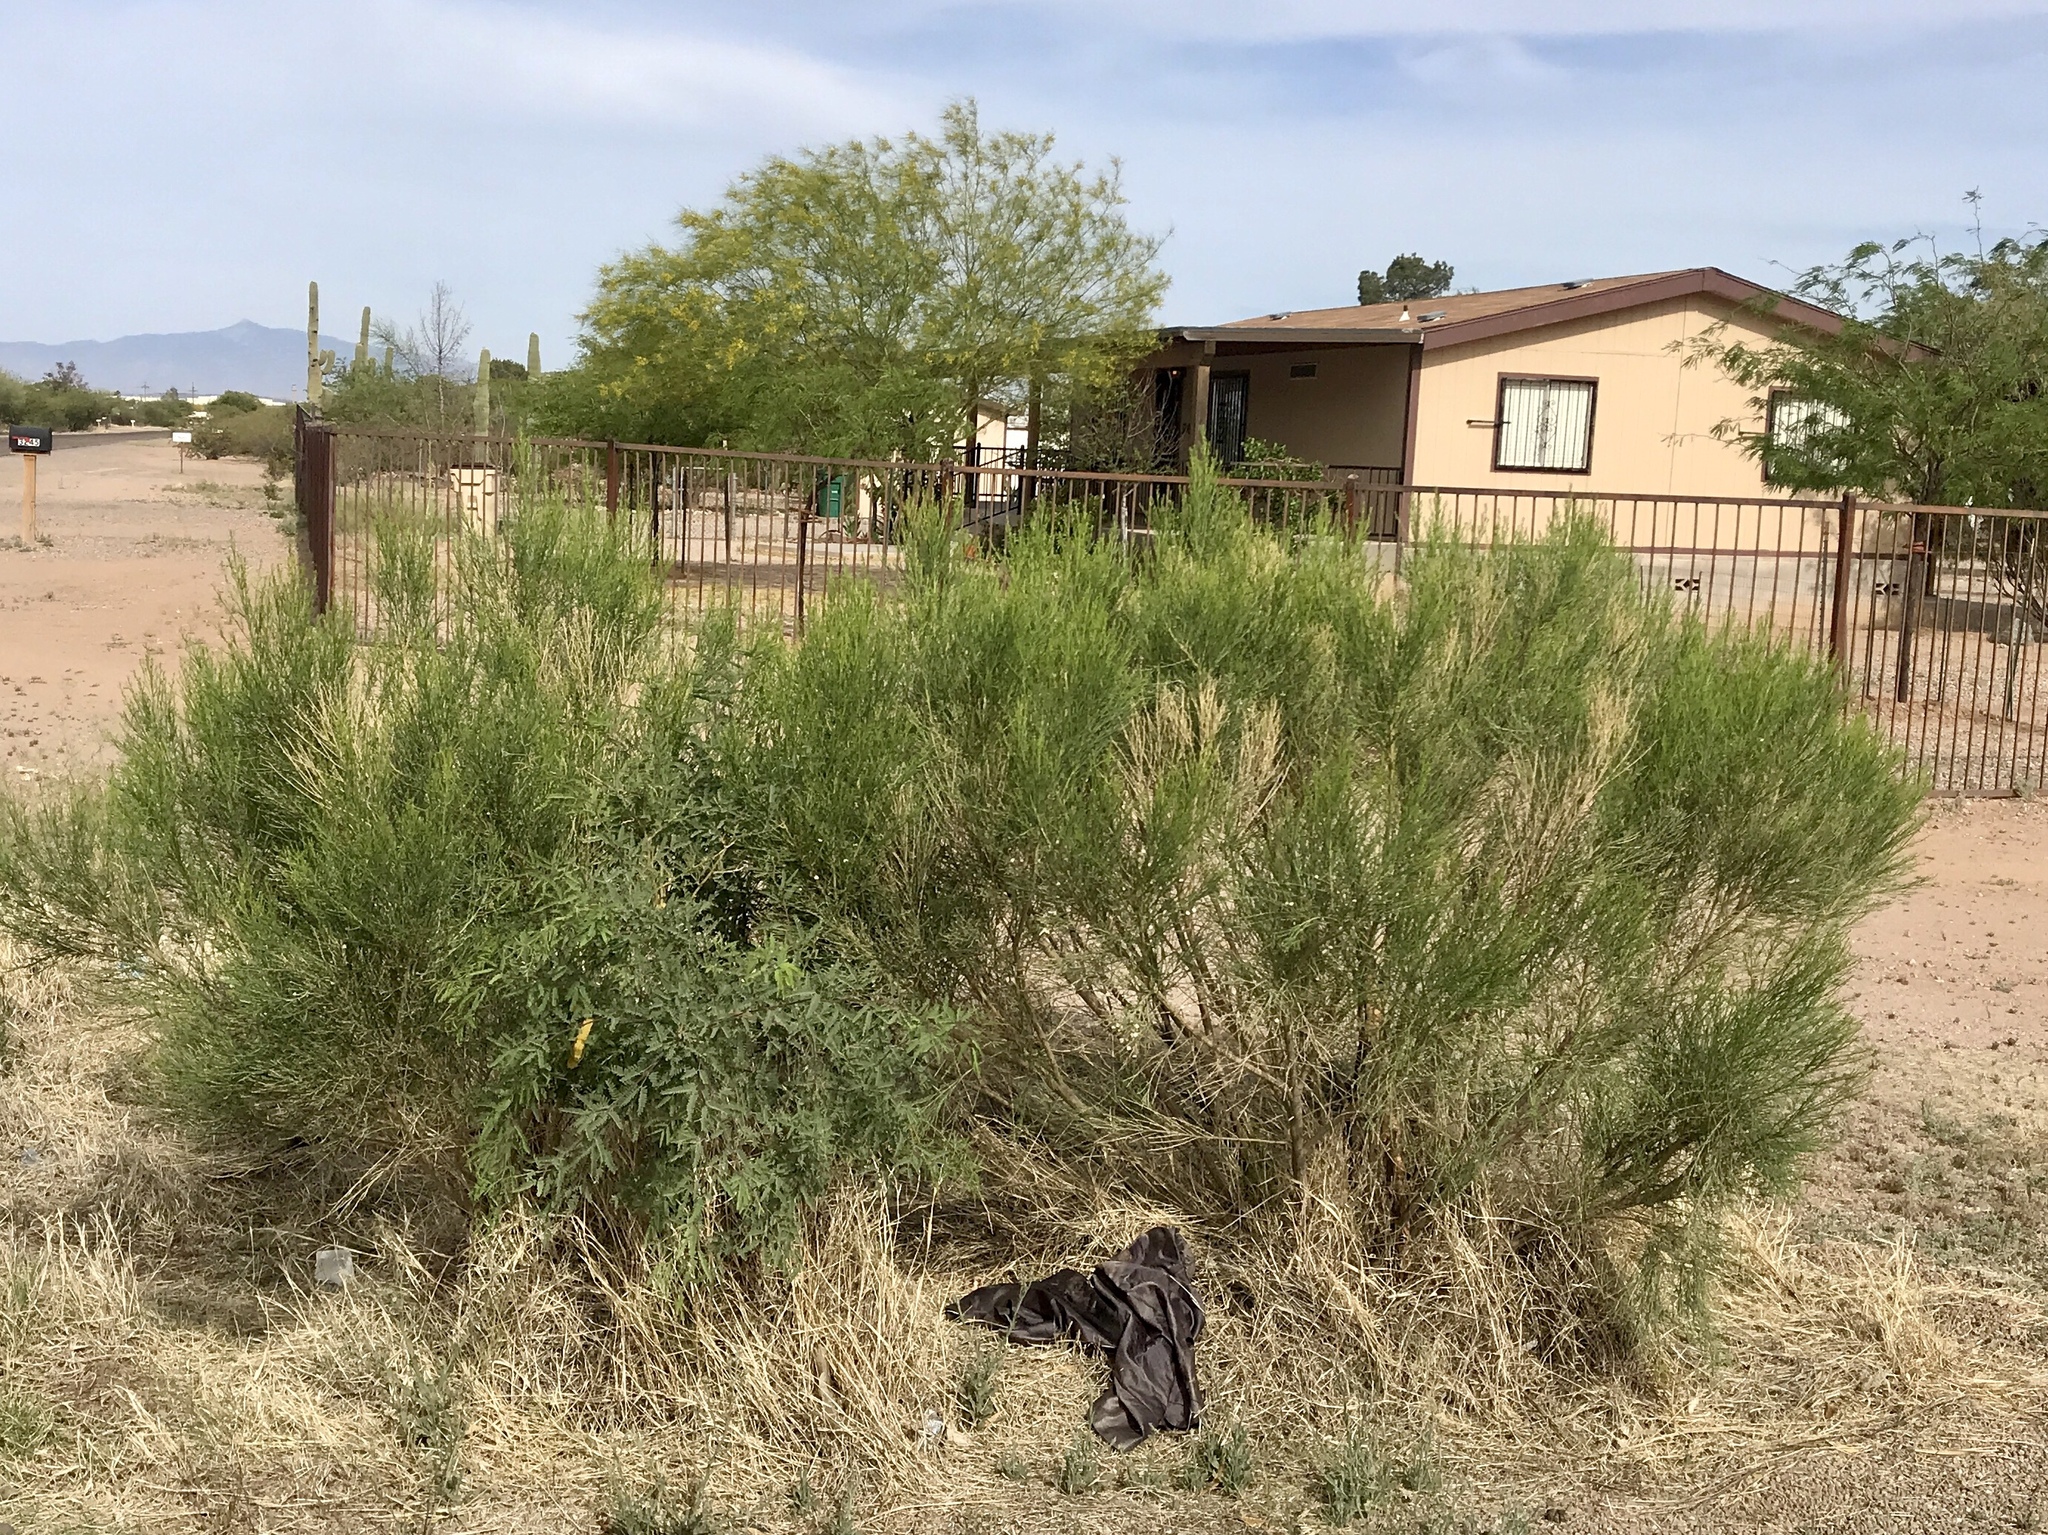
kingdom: Plantae
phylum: Tracheophyta
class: Magnoliopsida
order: Asterales
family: Asteraceae
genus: Baccharis
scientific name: Baccharis sarothroides
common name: Desert-broom
